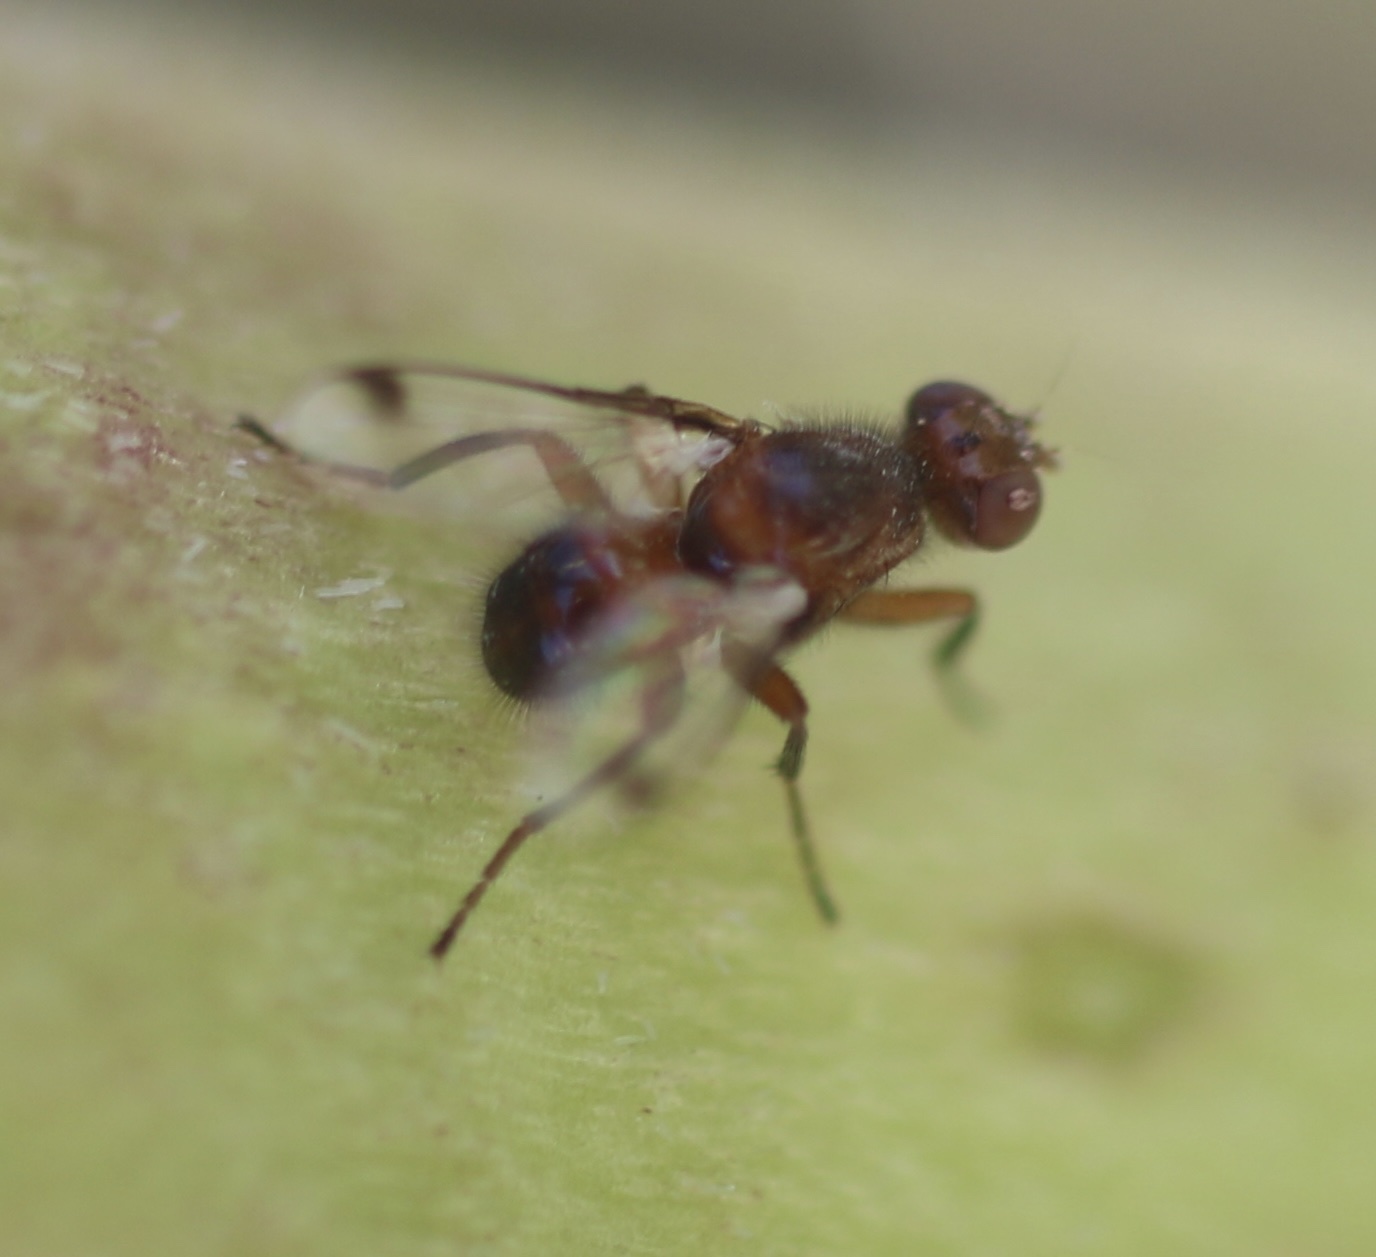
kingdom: Animalia
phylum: Arthropoda
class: Insecta
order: Diptera
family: Richardiidae
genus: Omomyia
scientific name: Omomyia regularis
